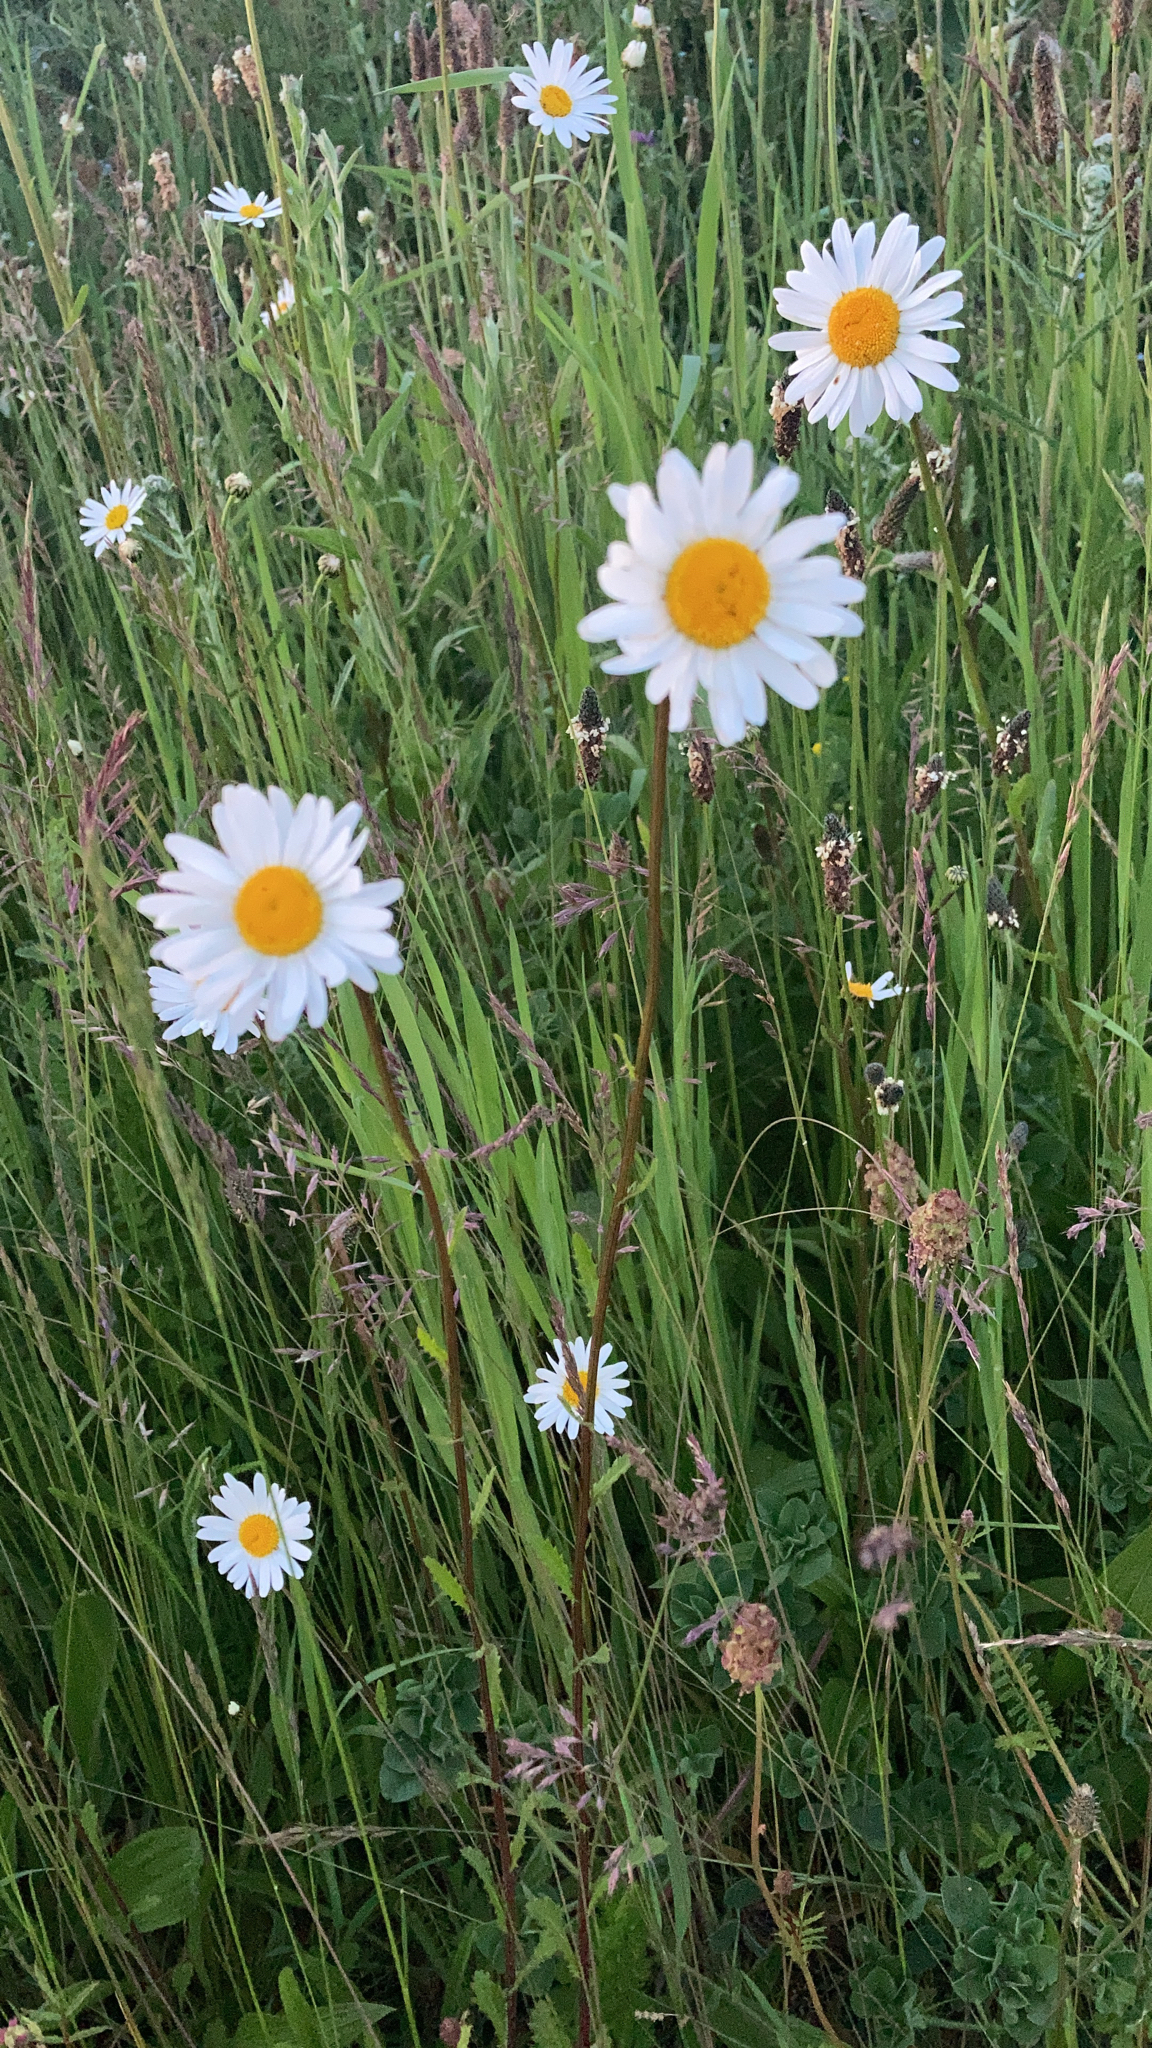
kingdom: Plantae
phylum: Tracheophyta
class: Magnoliopsida
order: Asterales
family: Asteraceae
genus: Leucanthemum
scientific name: Leucanthemum vulgare
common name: Oxeye daisy
